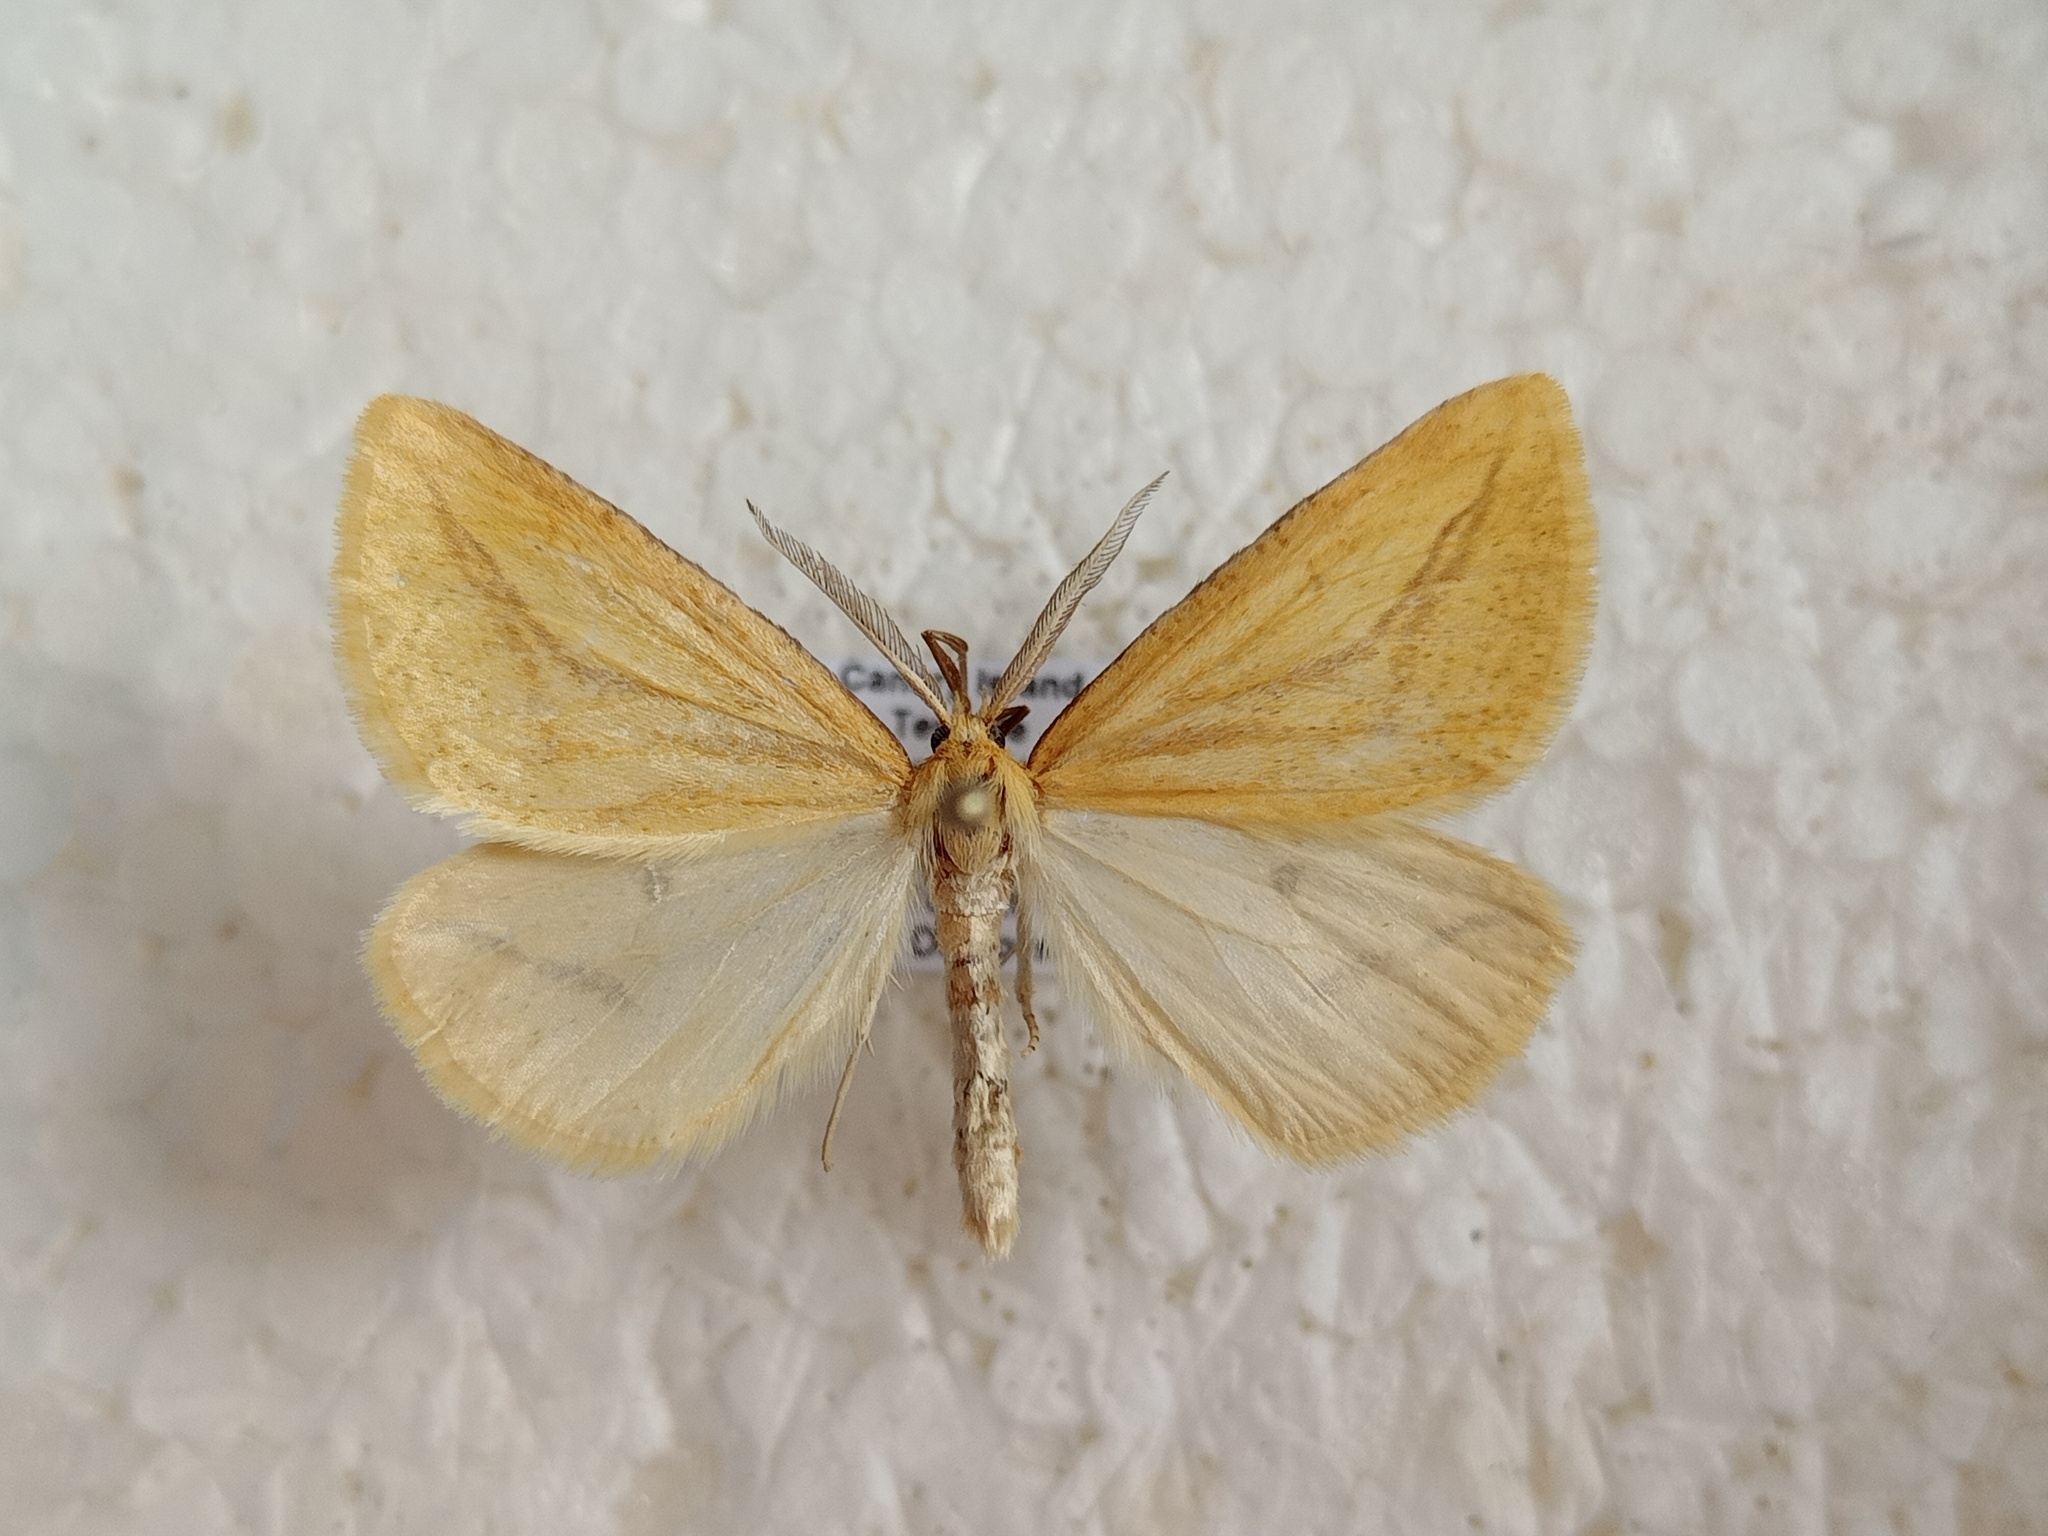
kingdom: Animalia
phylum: Arthropoda
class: Insecta
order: Lepidoptera
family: Geometridae
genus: Aspitates
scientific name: Aspitates collinaria
